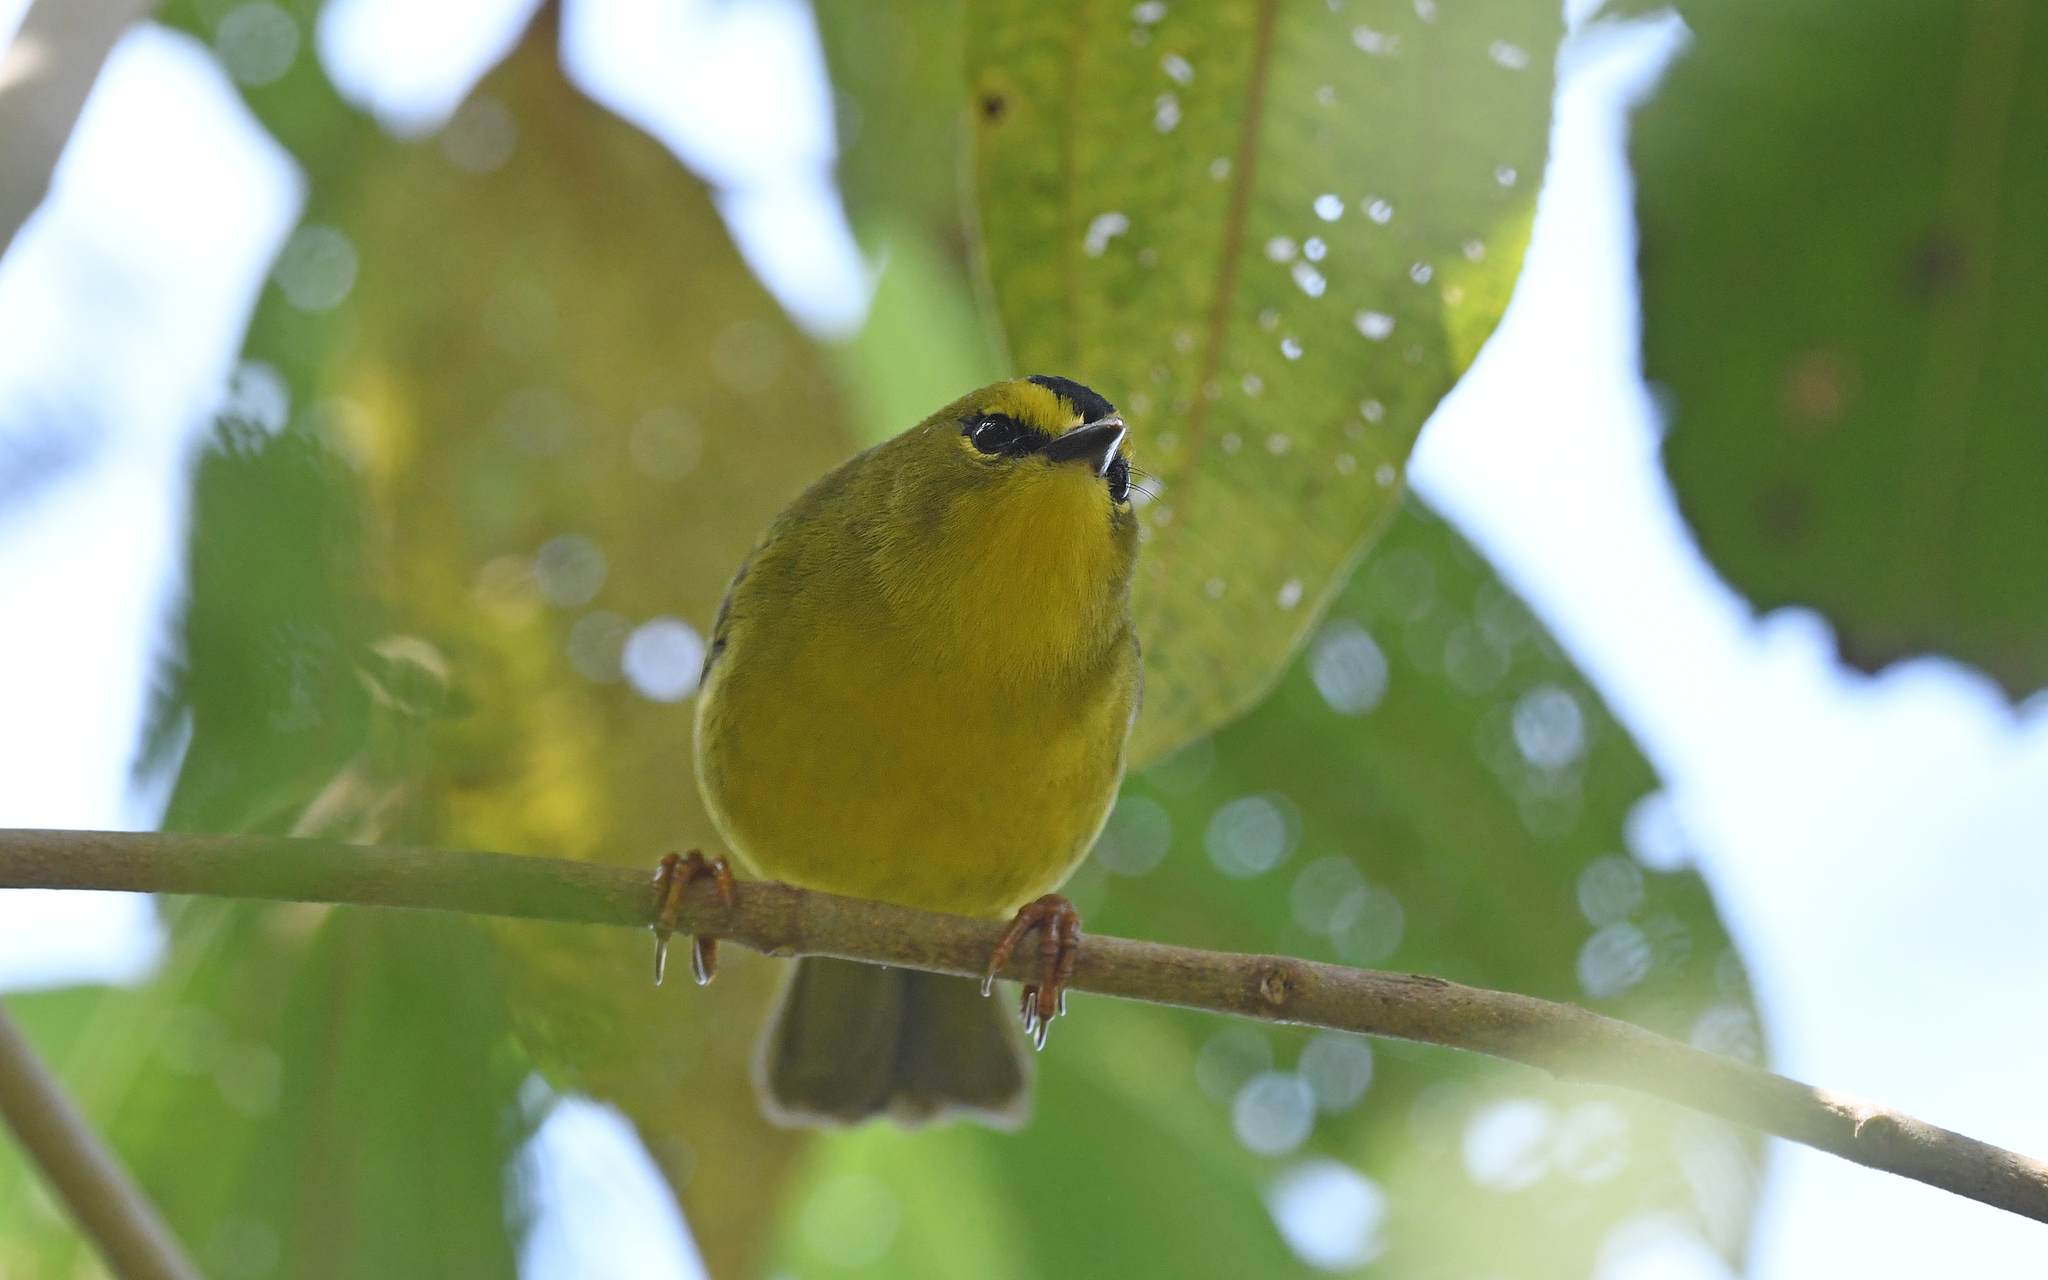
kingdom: Animalia
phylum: Chordata
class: Aves
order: Passeriformes
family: Parulidae
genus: Myiothlypis
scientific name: Myiothlypis nigrocristata
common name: Black-crested warbler
